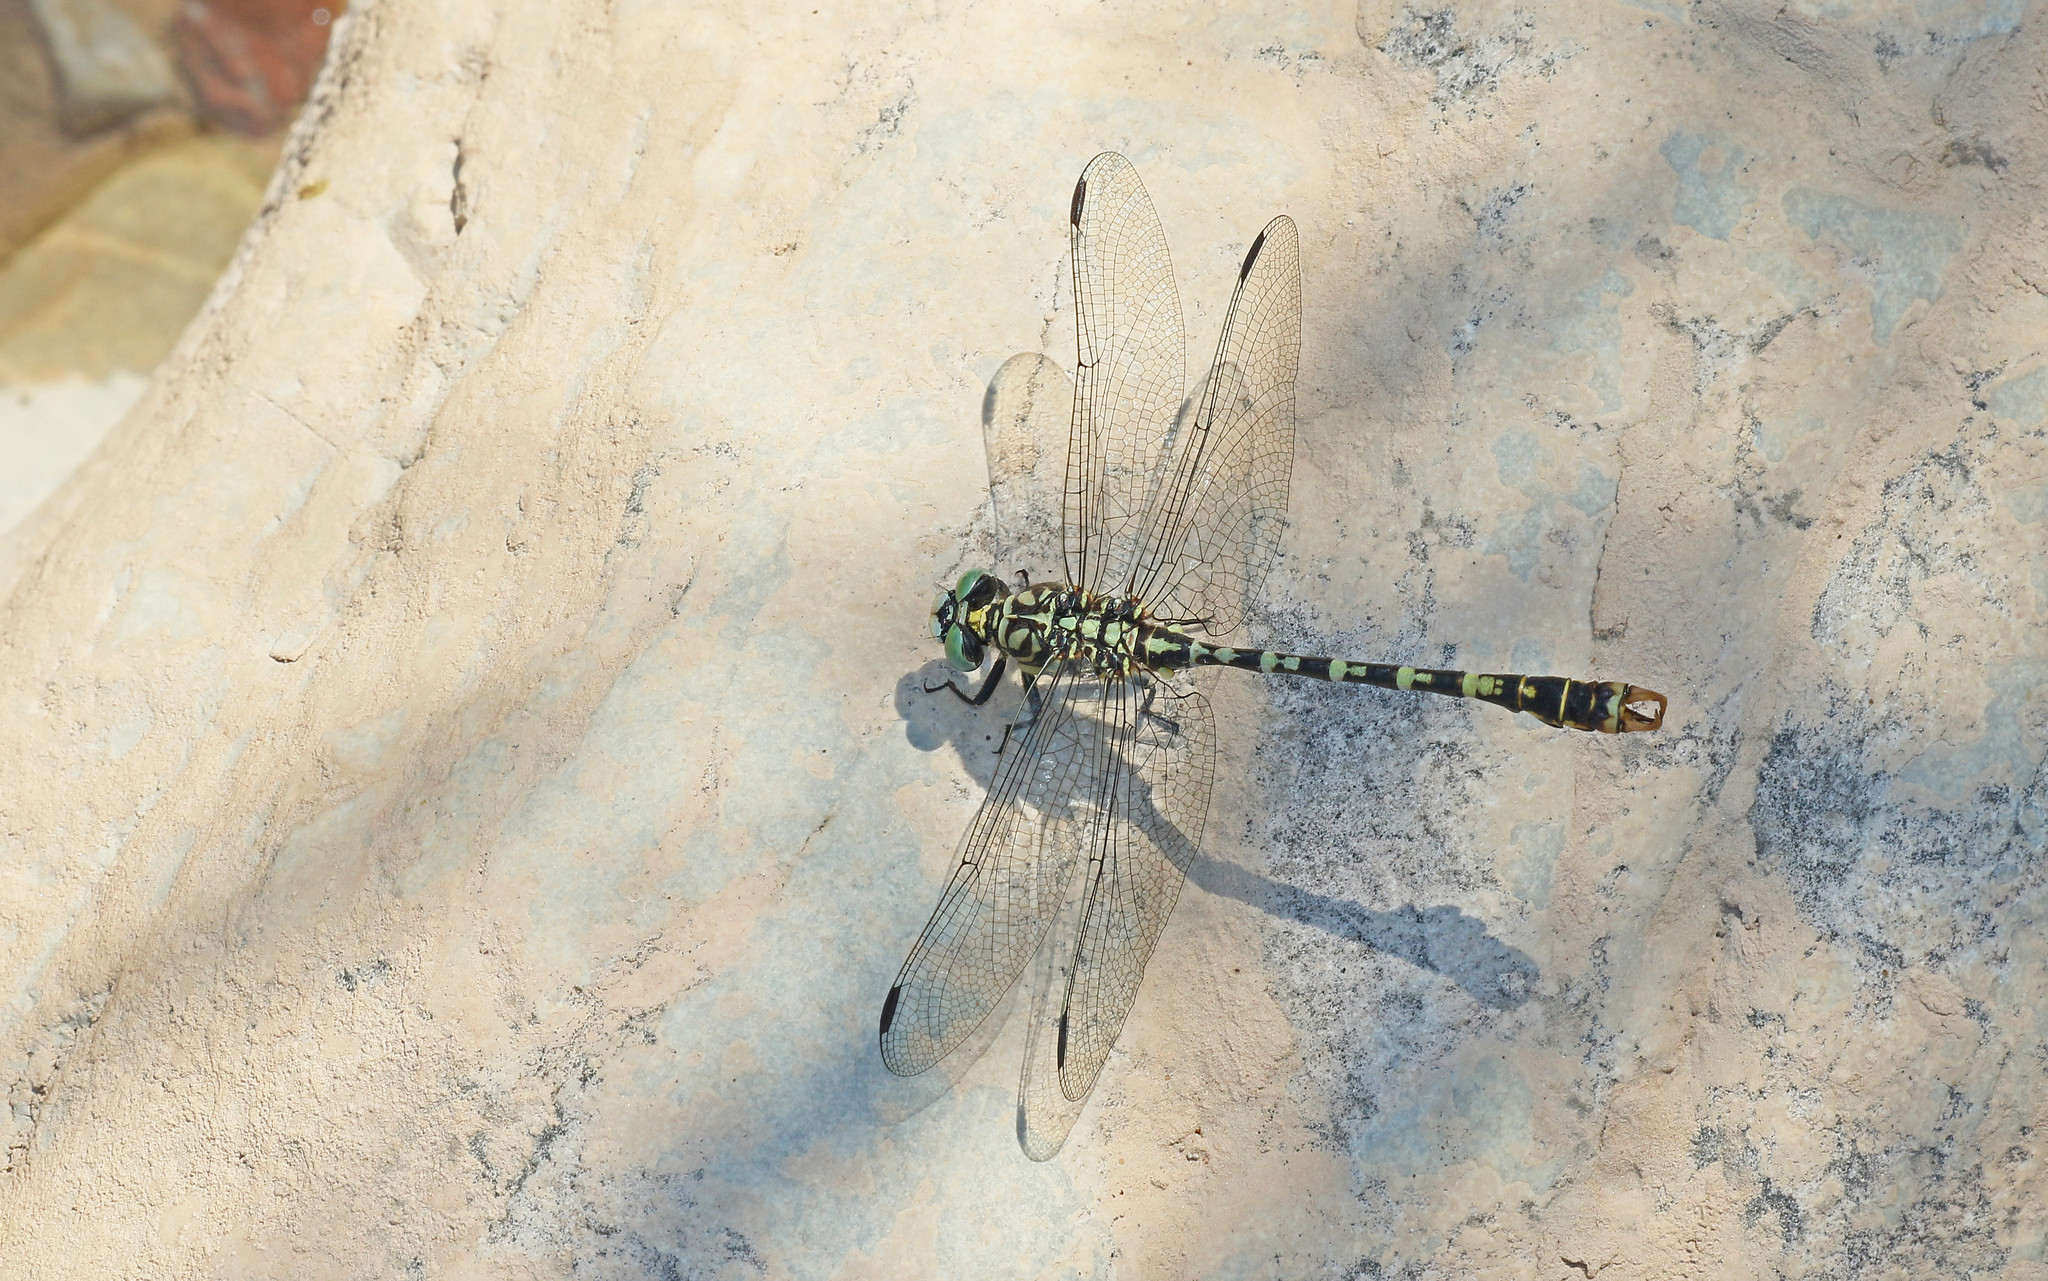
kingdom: Animalia
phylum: Arthropoda
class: Insecta
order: Odonata
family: Gomphidae
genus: Onychogomphus
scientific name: Onychogomphus forcipatus
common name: Small pincertail
